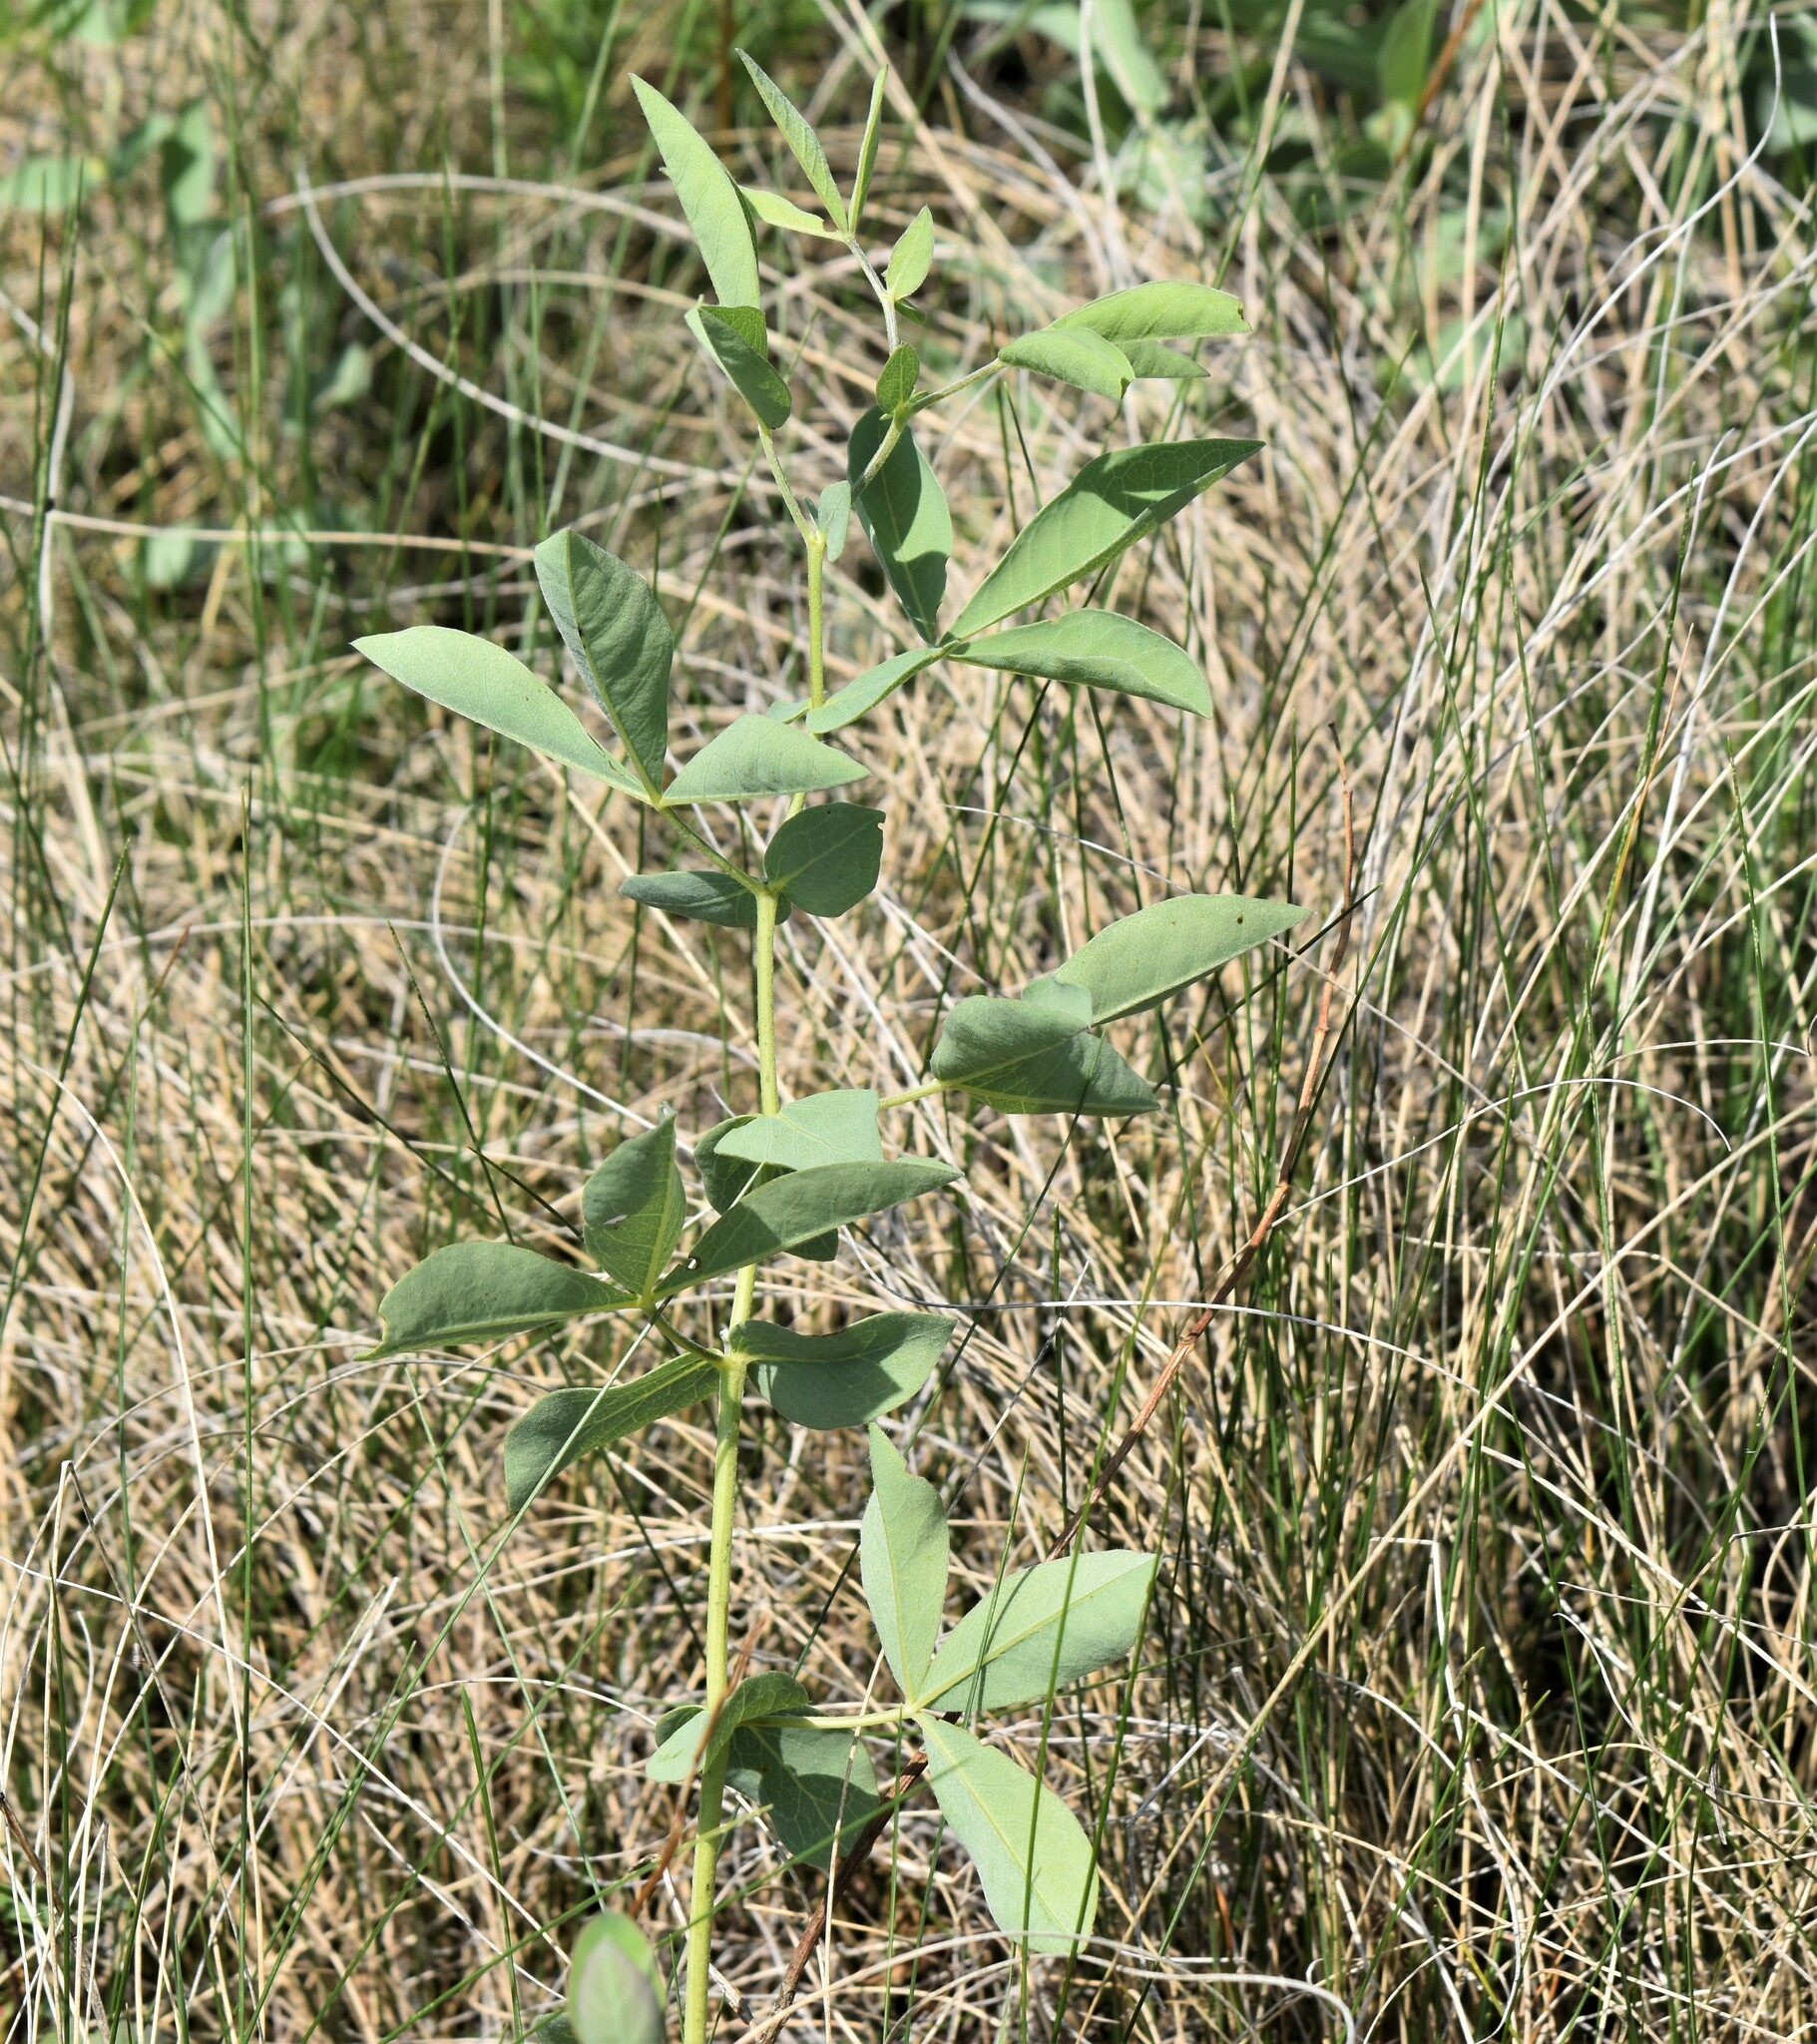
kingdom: Plantae
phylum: Tracheophyta
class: Magnoliopsida
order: Fabales
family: Fabaceae
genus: Thermopsis
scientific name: Thermopsis rhombifolia
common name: Circle-pod-pea
